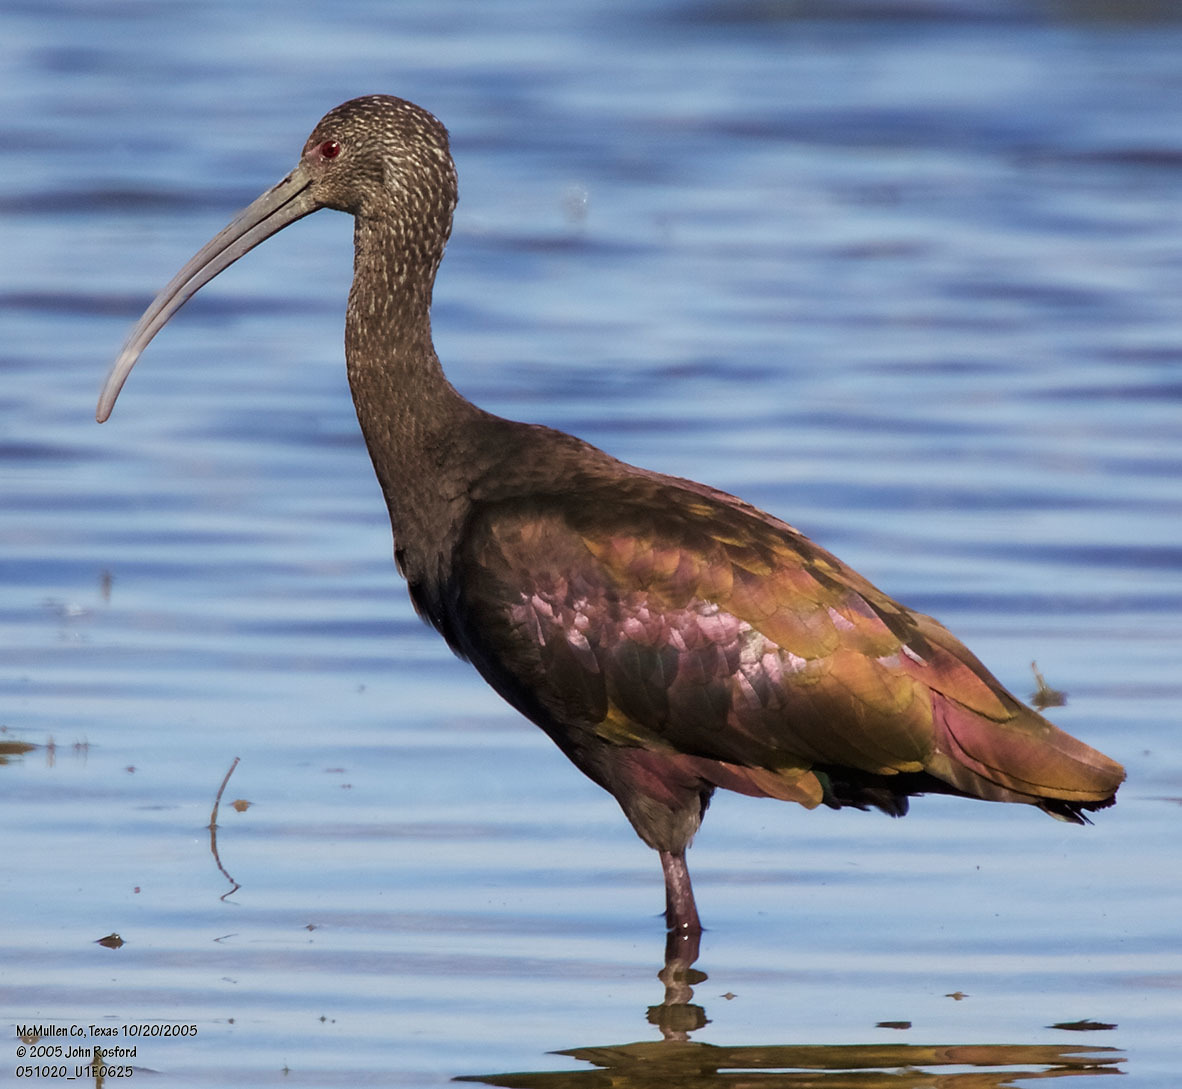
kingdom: Animalia
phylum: Chordata
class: Aves
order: Pelecaniformes
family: Threskiornithidae
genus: Plegadis
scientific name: Plegadis chihi
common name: White-faced ibis
